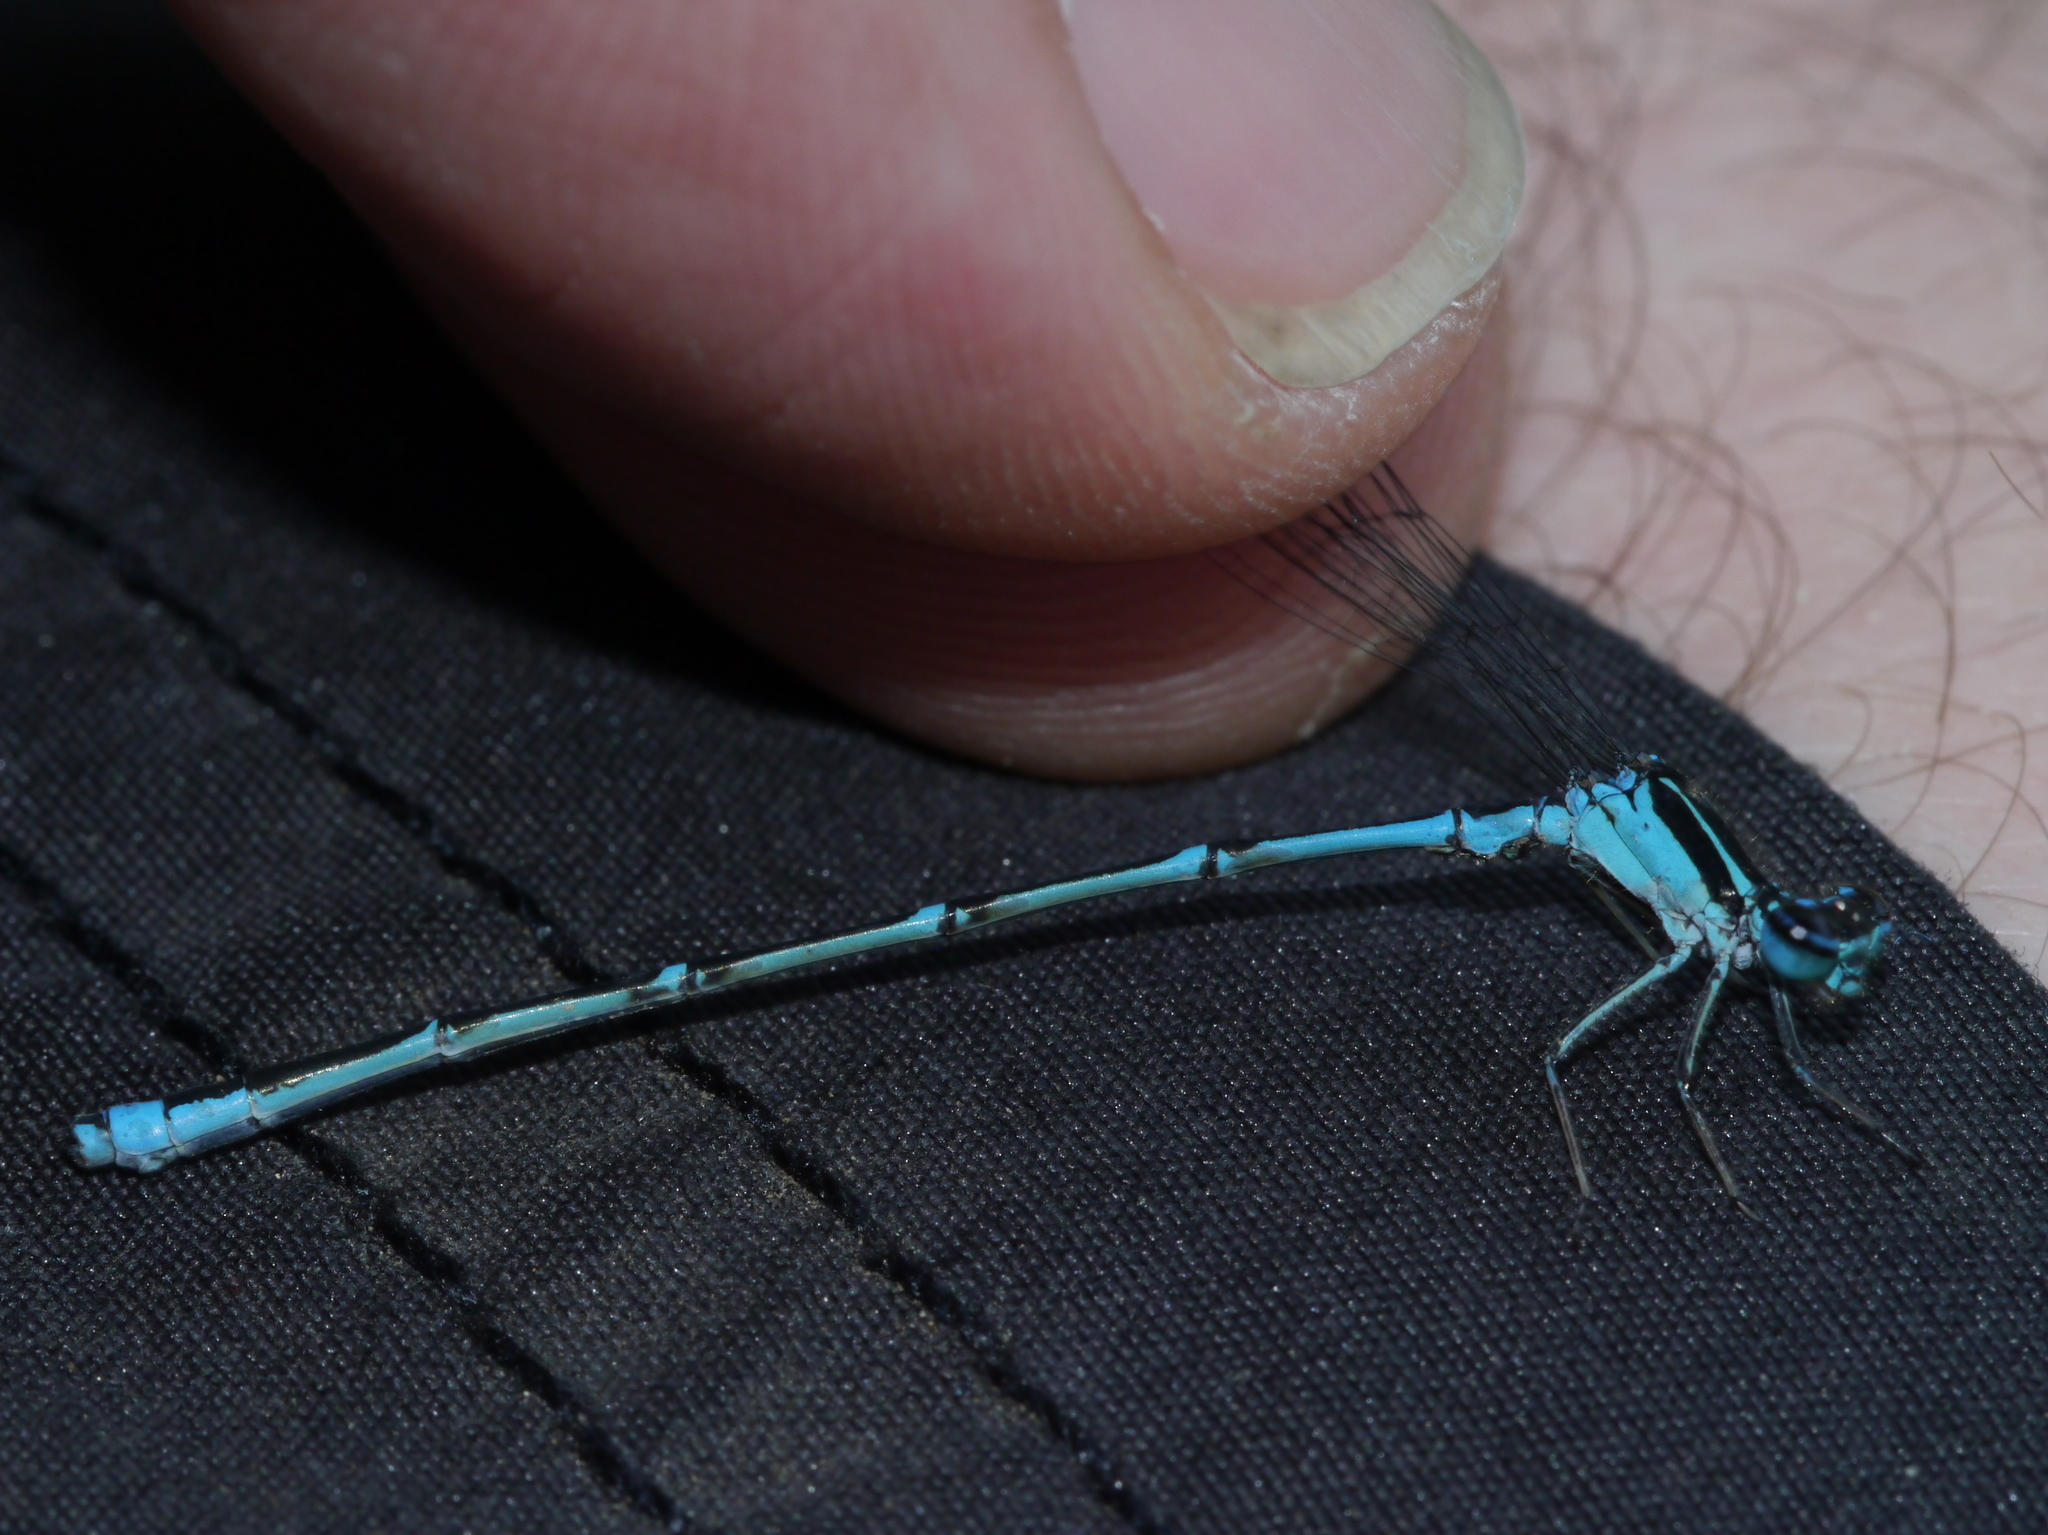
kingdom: Animalia
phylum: Arthropoda
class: Insecta
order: Odonata
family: Coenagrionidae
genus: Enallagma
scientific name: Enallagma exsulans
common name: Stream bluet
